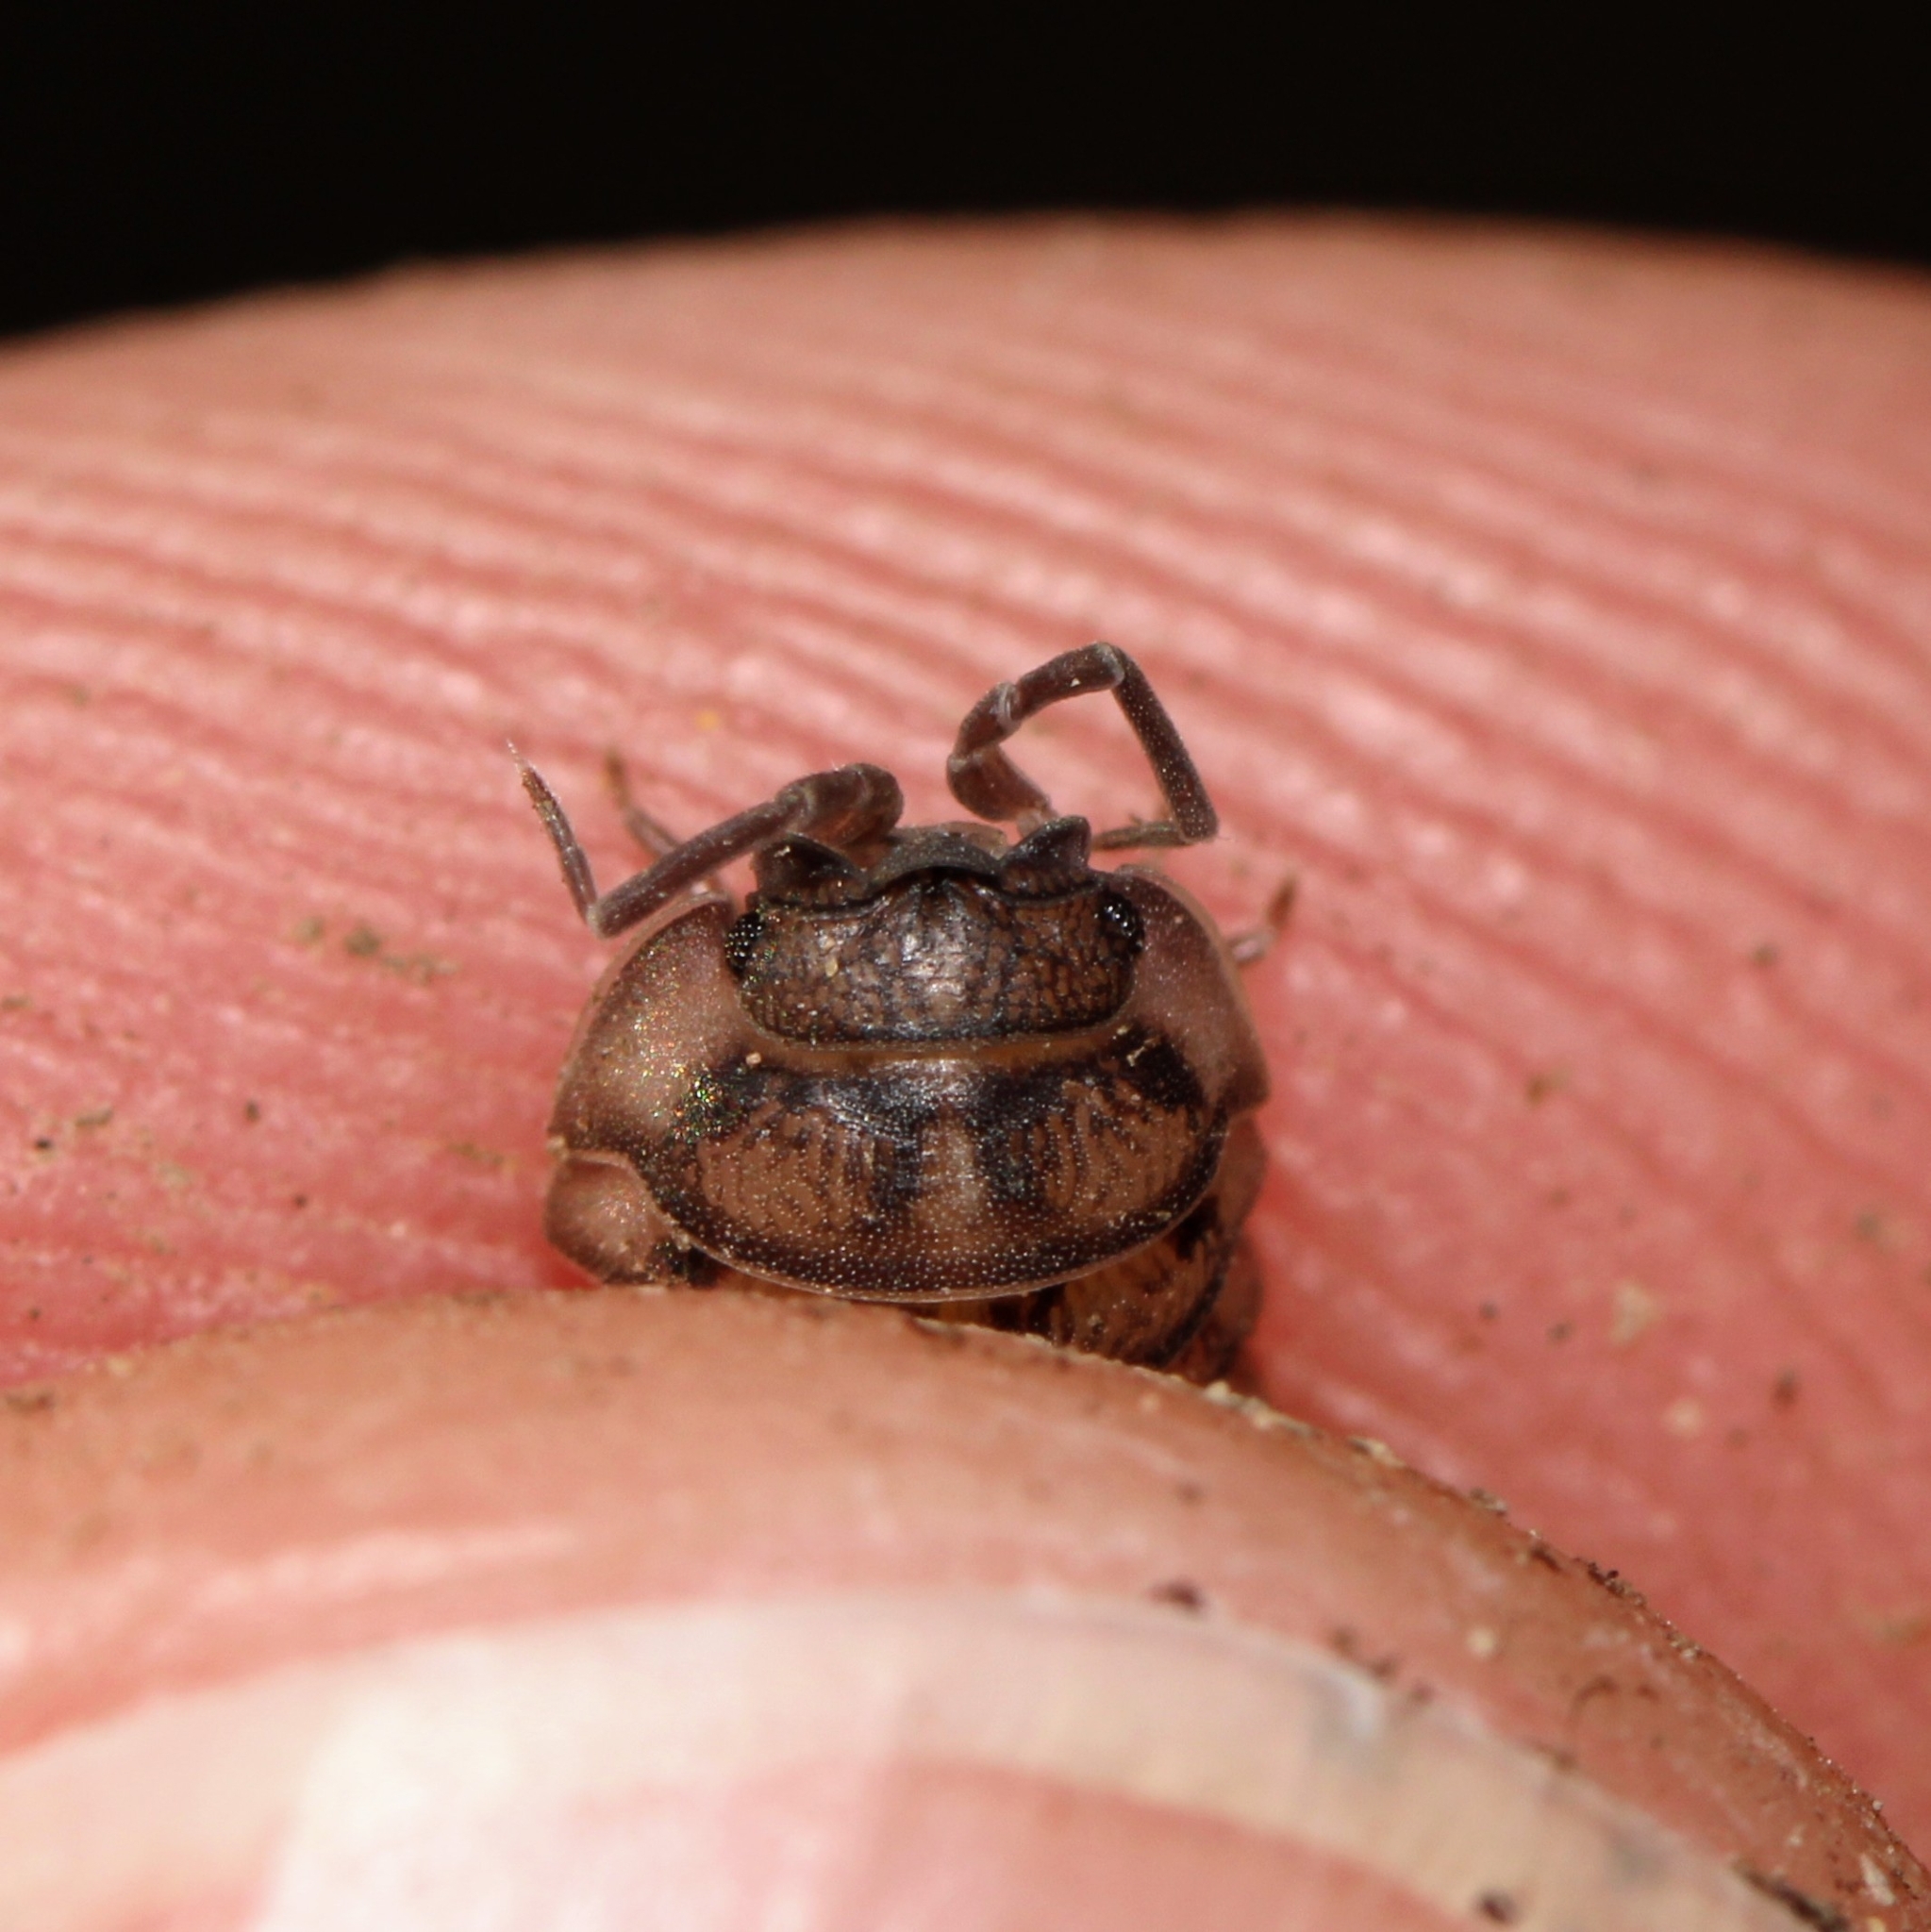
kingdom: Animalia
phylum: Arthropoda
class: Malacostraca
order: Isopoda
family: Armadillidiidae
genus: Armadillidium
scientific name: Armadillidium nasatum
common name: Isopod
